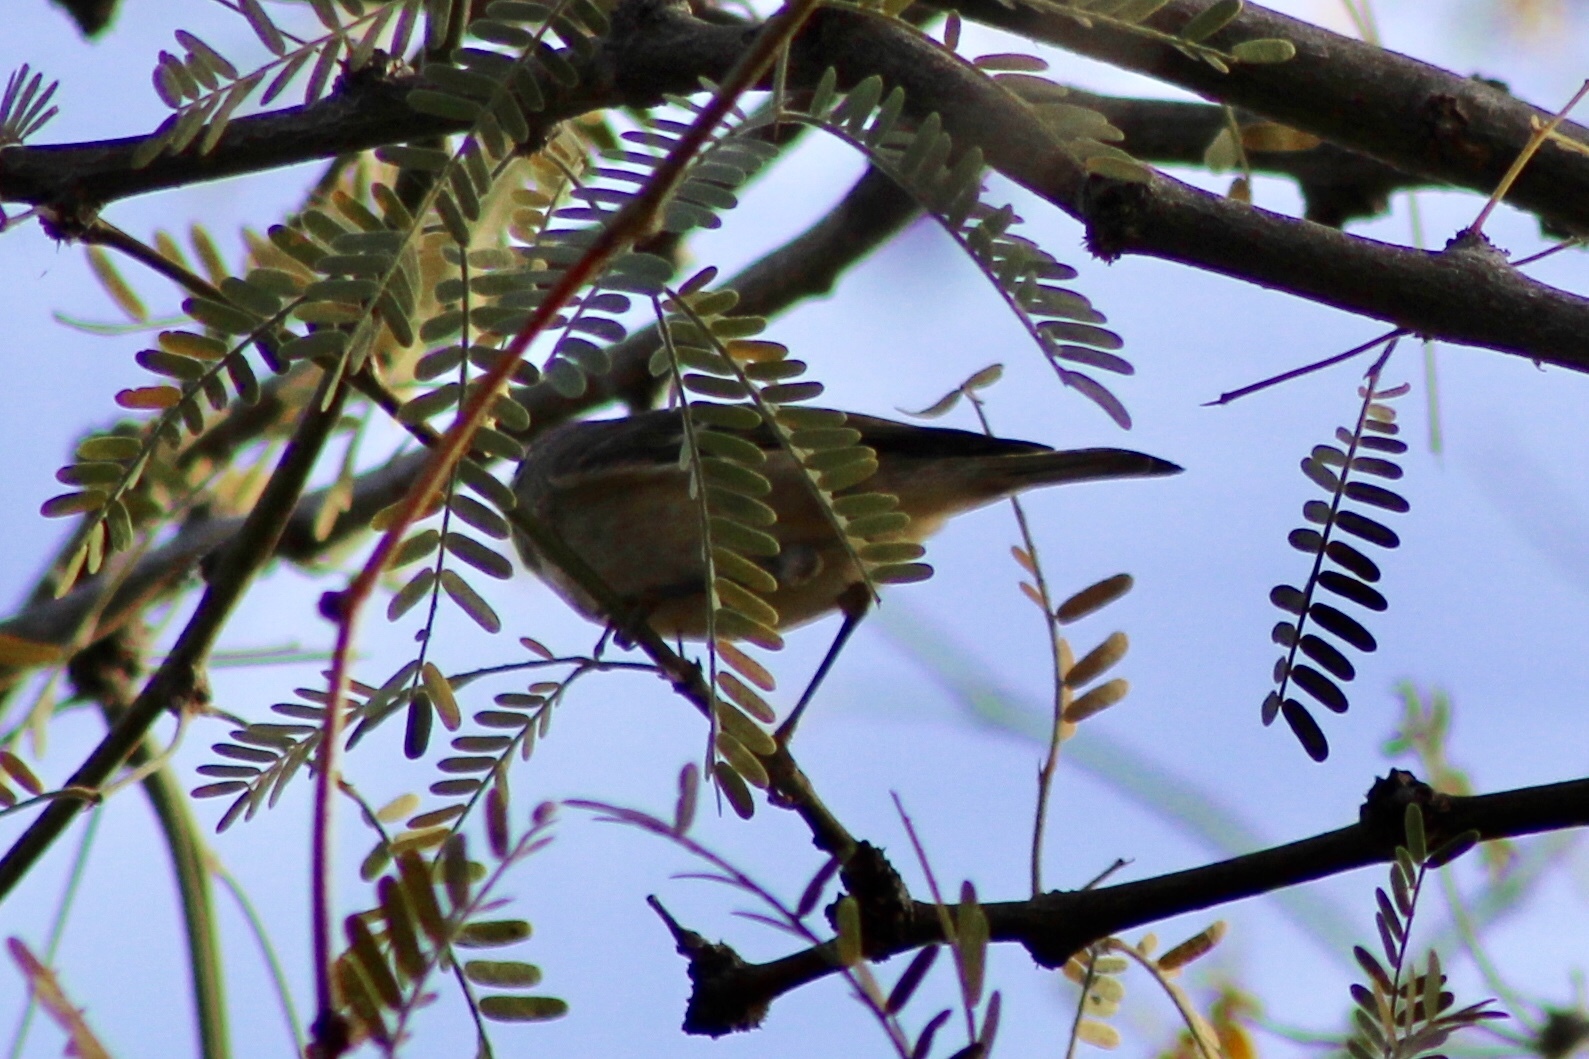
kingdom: Animalia
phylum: Chordata
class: Aves
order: Passeriformes
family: Regulidae
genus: Regulus
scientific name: Regulus calendula
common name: Ruby-crowned kinglet
